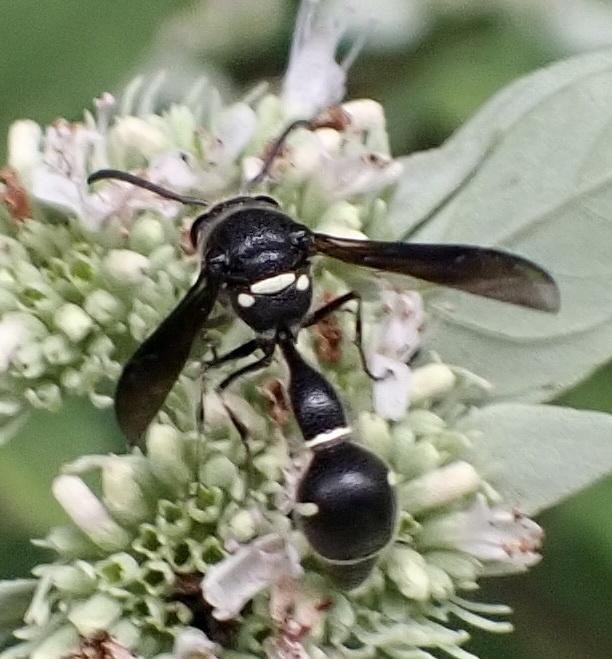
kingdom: Animalia
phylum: Arthropoda
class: Insecta
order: Hymenoptera
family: Vespidae
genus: Eumenes
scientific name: Eumenes fraternus
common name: Fraternal potter wasp
